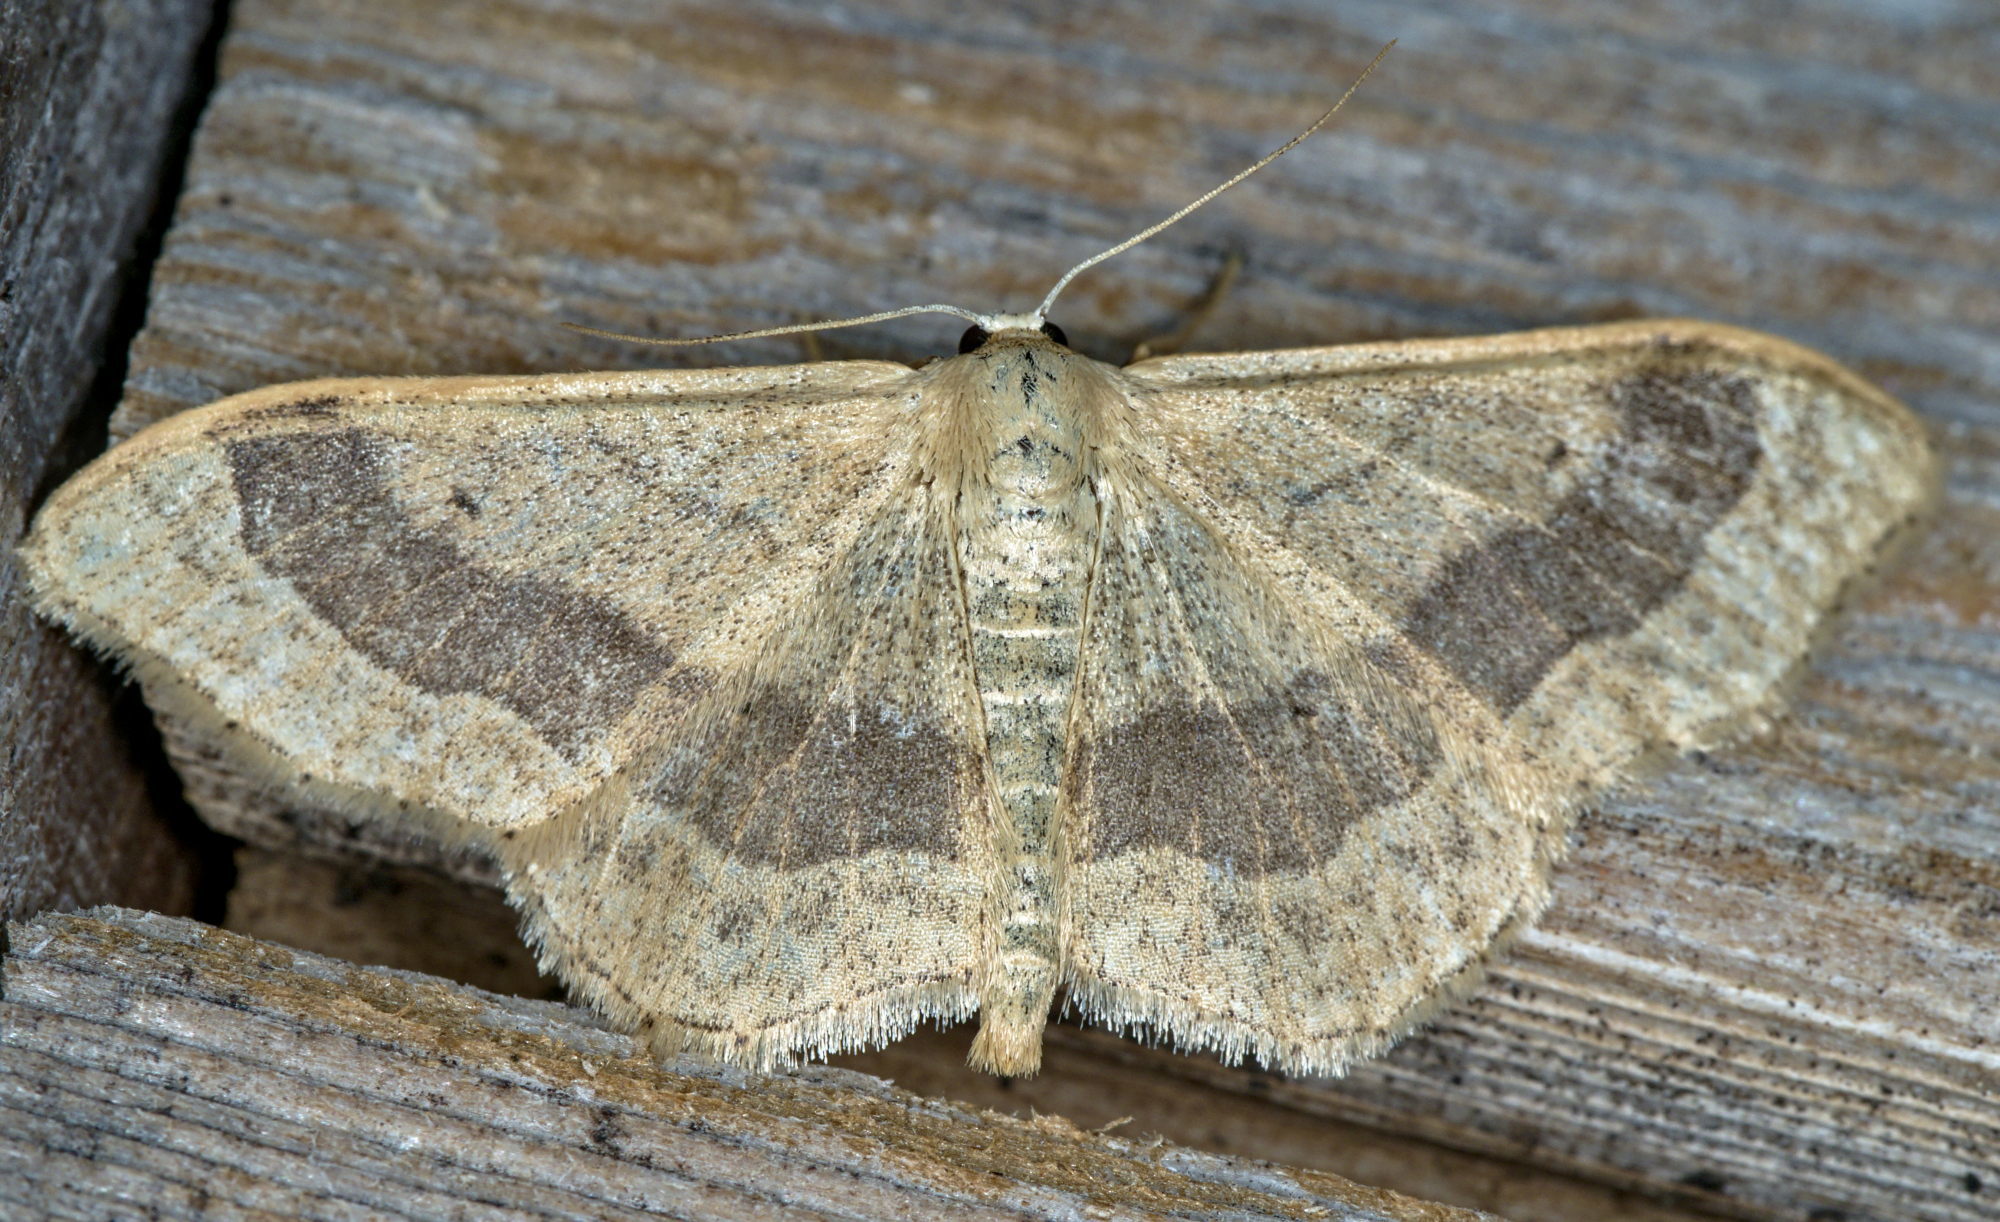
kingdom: Animalia
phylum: Arthropoda
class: Insecta
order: Lepidoptera
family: Geometridae
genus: Idaea
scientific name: Idaea aversata
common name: Riband wave
